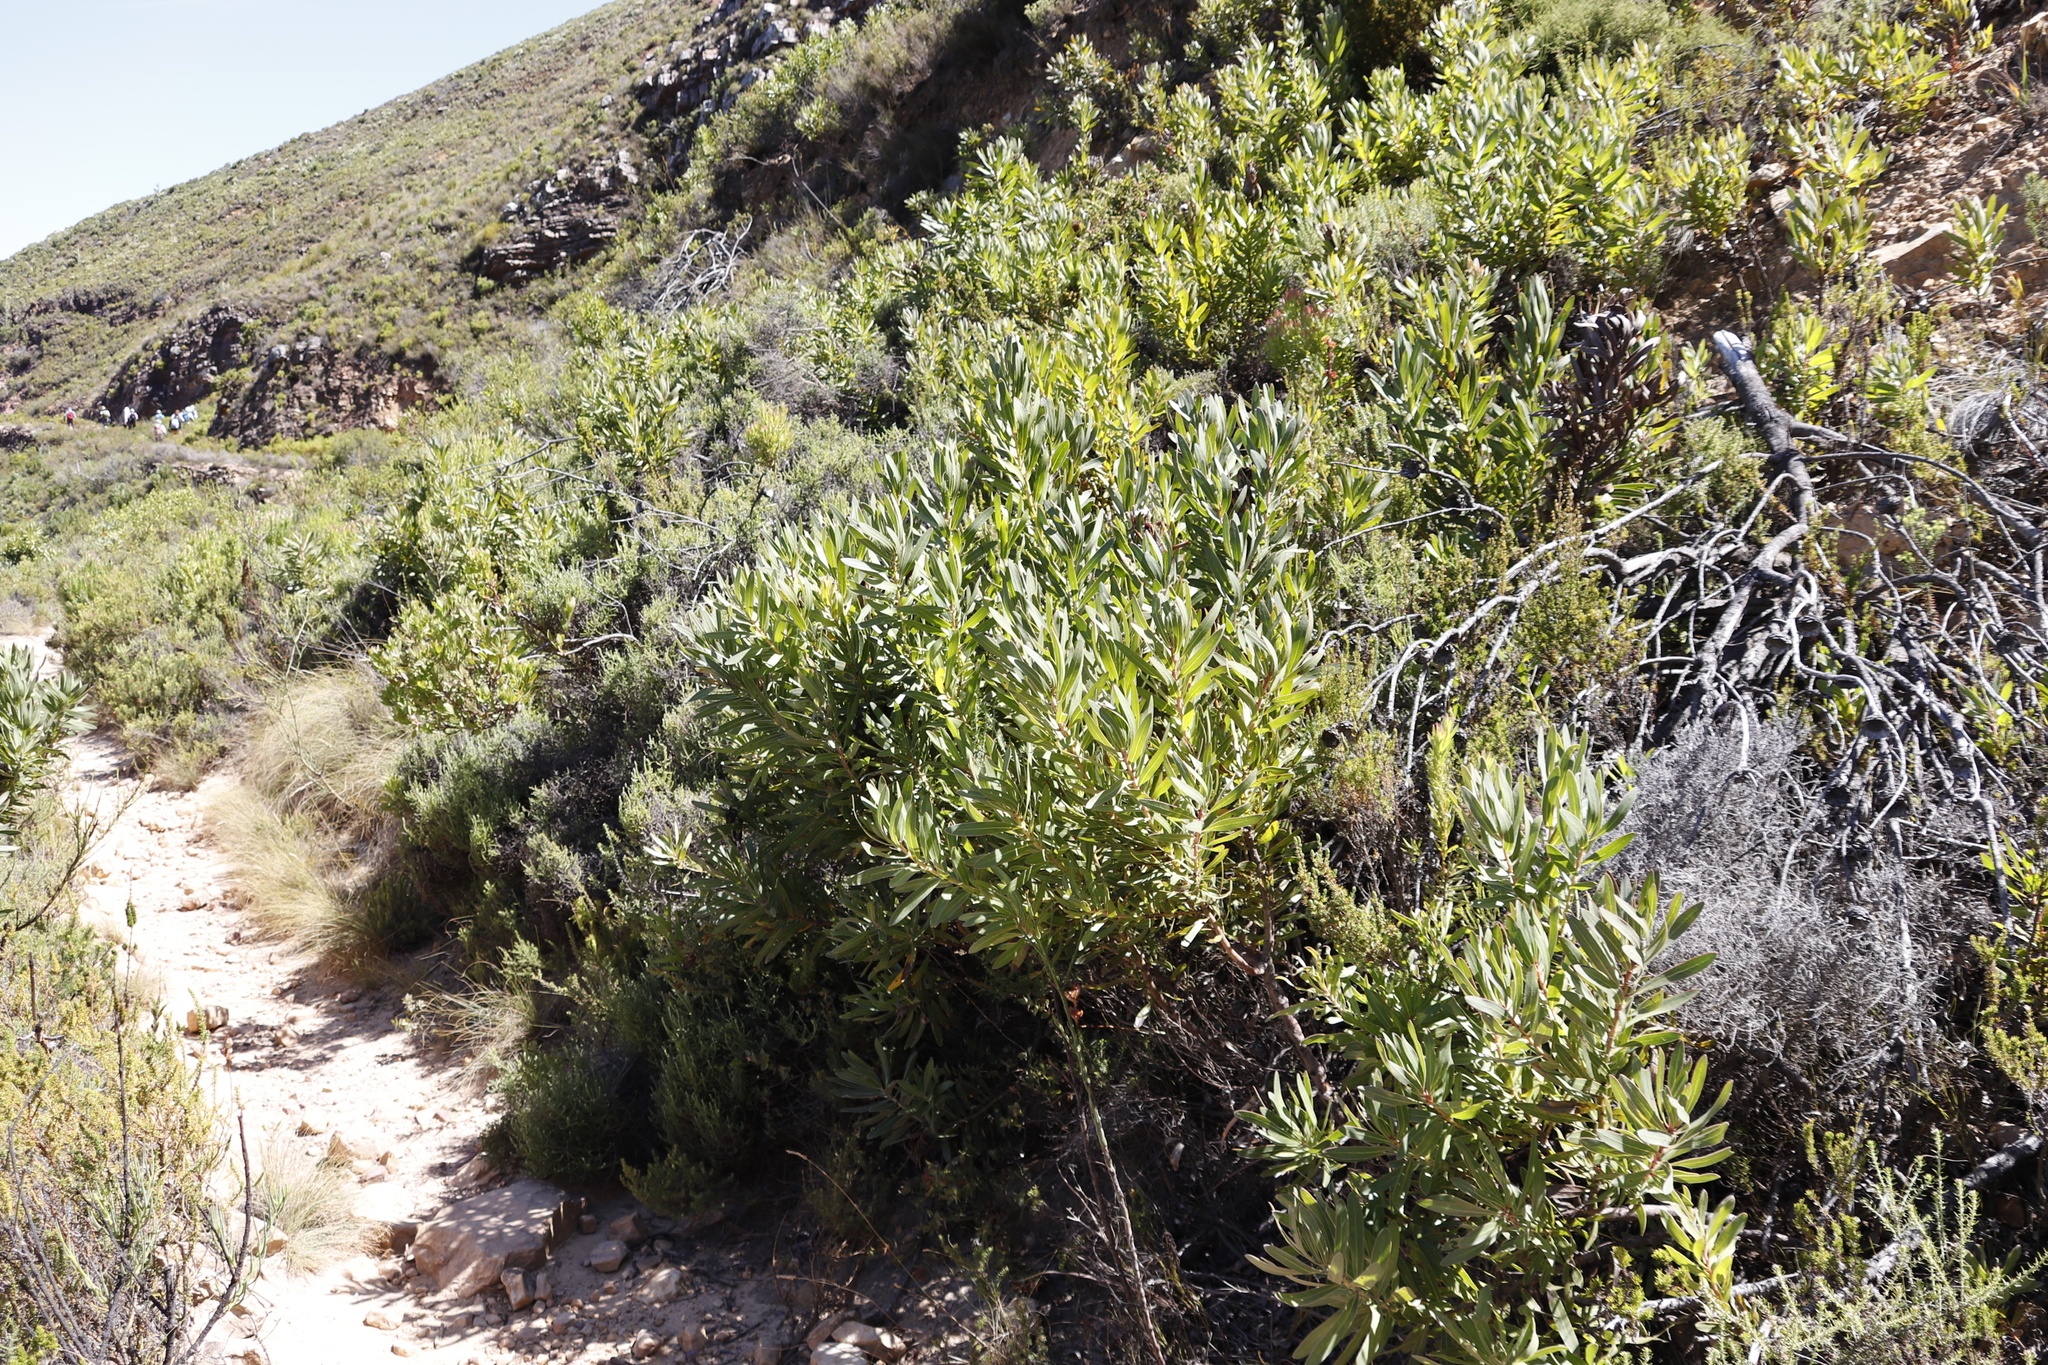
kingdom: Plantae
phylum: Tracheophyta
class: Magnoliopsida
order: Proteales
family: Proteaceae
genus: Protea
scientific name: Protea lepidocarpodendron
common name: Black-bearded protea
